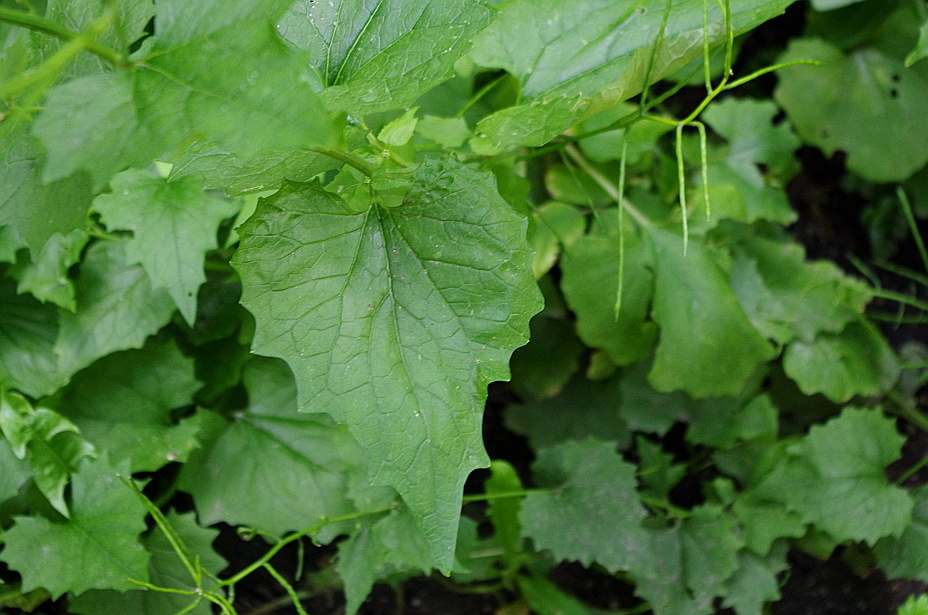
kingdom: Plantae
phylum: Tracheophyta
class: Magnoliopsida
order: Brassicales
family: Brassicaceae
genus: Alliaria
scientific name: Alliaria petiolata
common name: Garlic mustard
